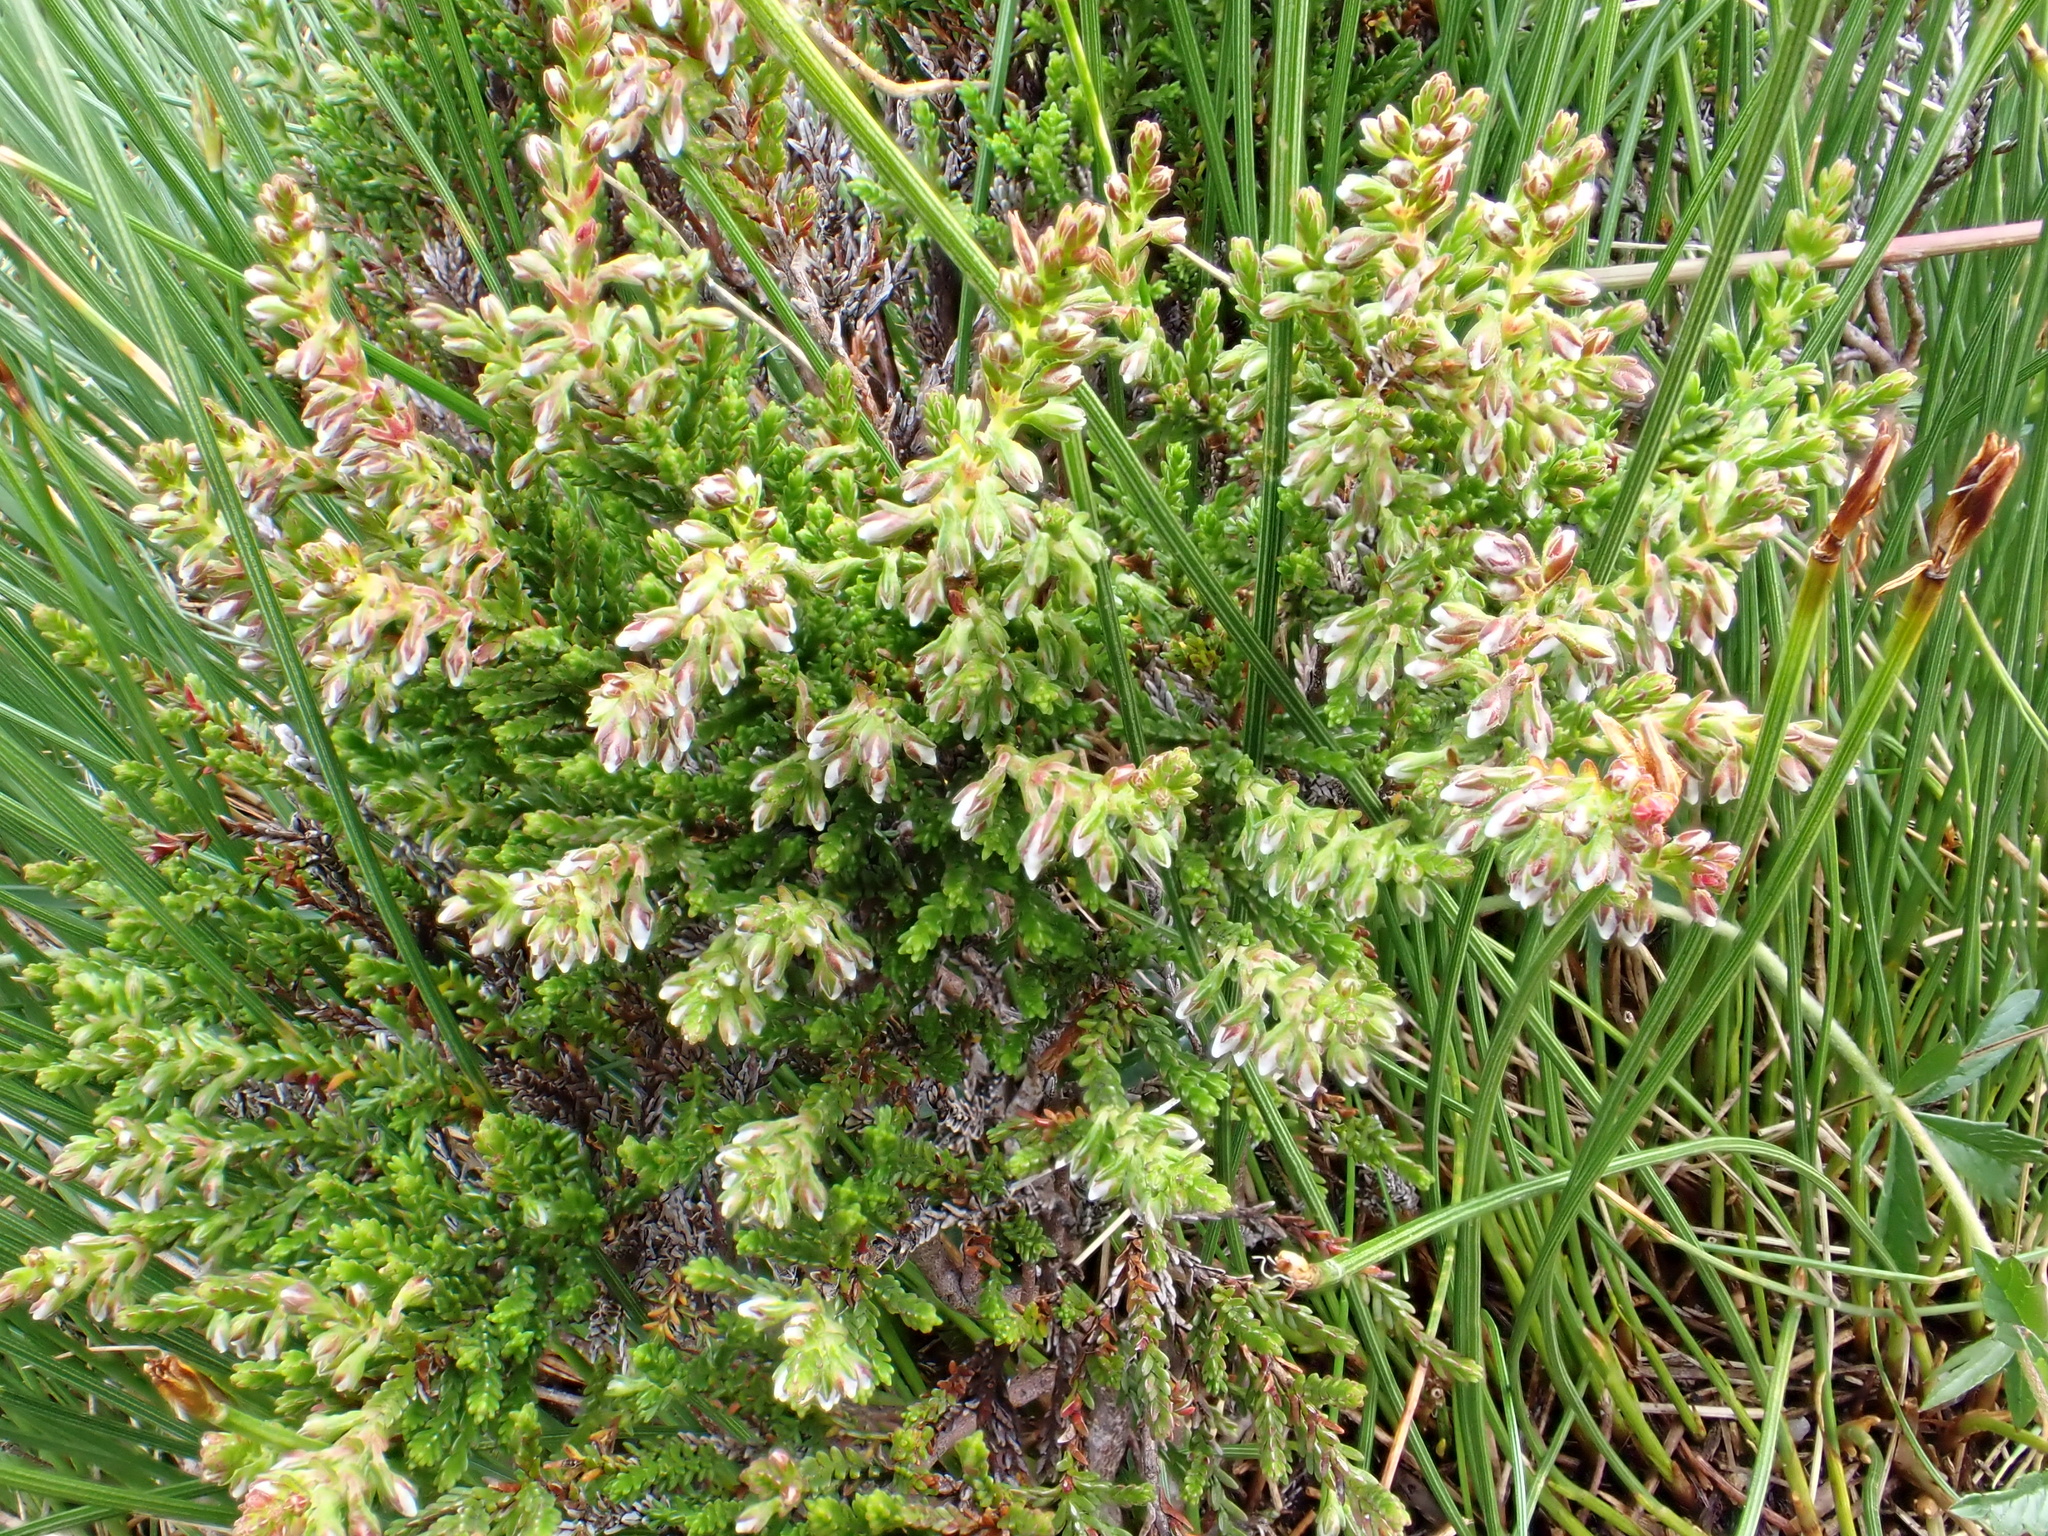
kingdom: Plantae
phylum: Tracheophyta
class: Magnoliopsida
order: Ericales
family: Ericaceae
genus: Calluna
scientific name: Calluna vulgaris
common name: Heather
